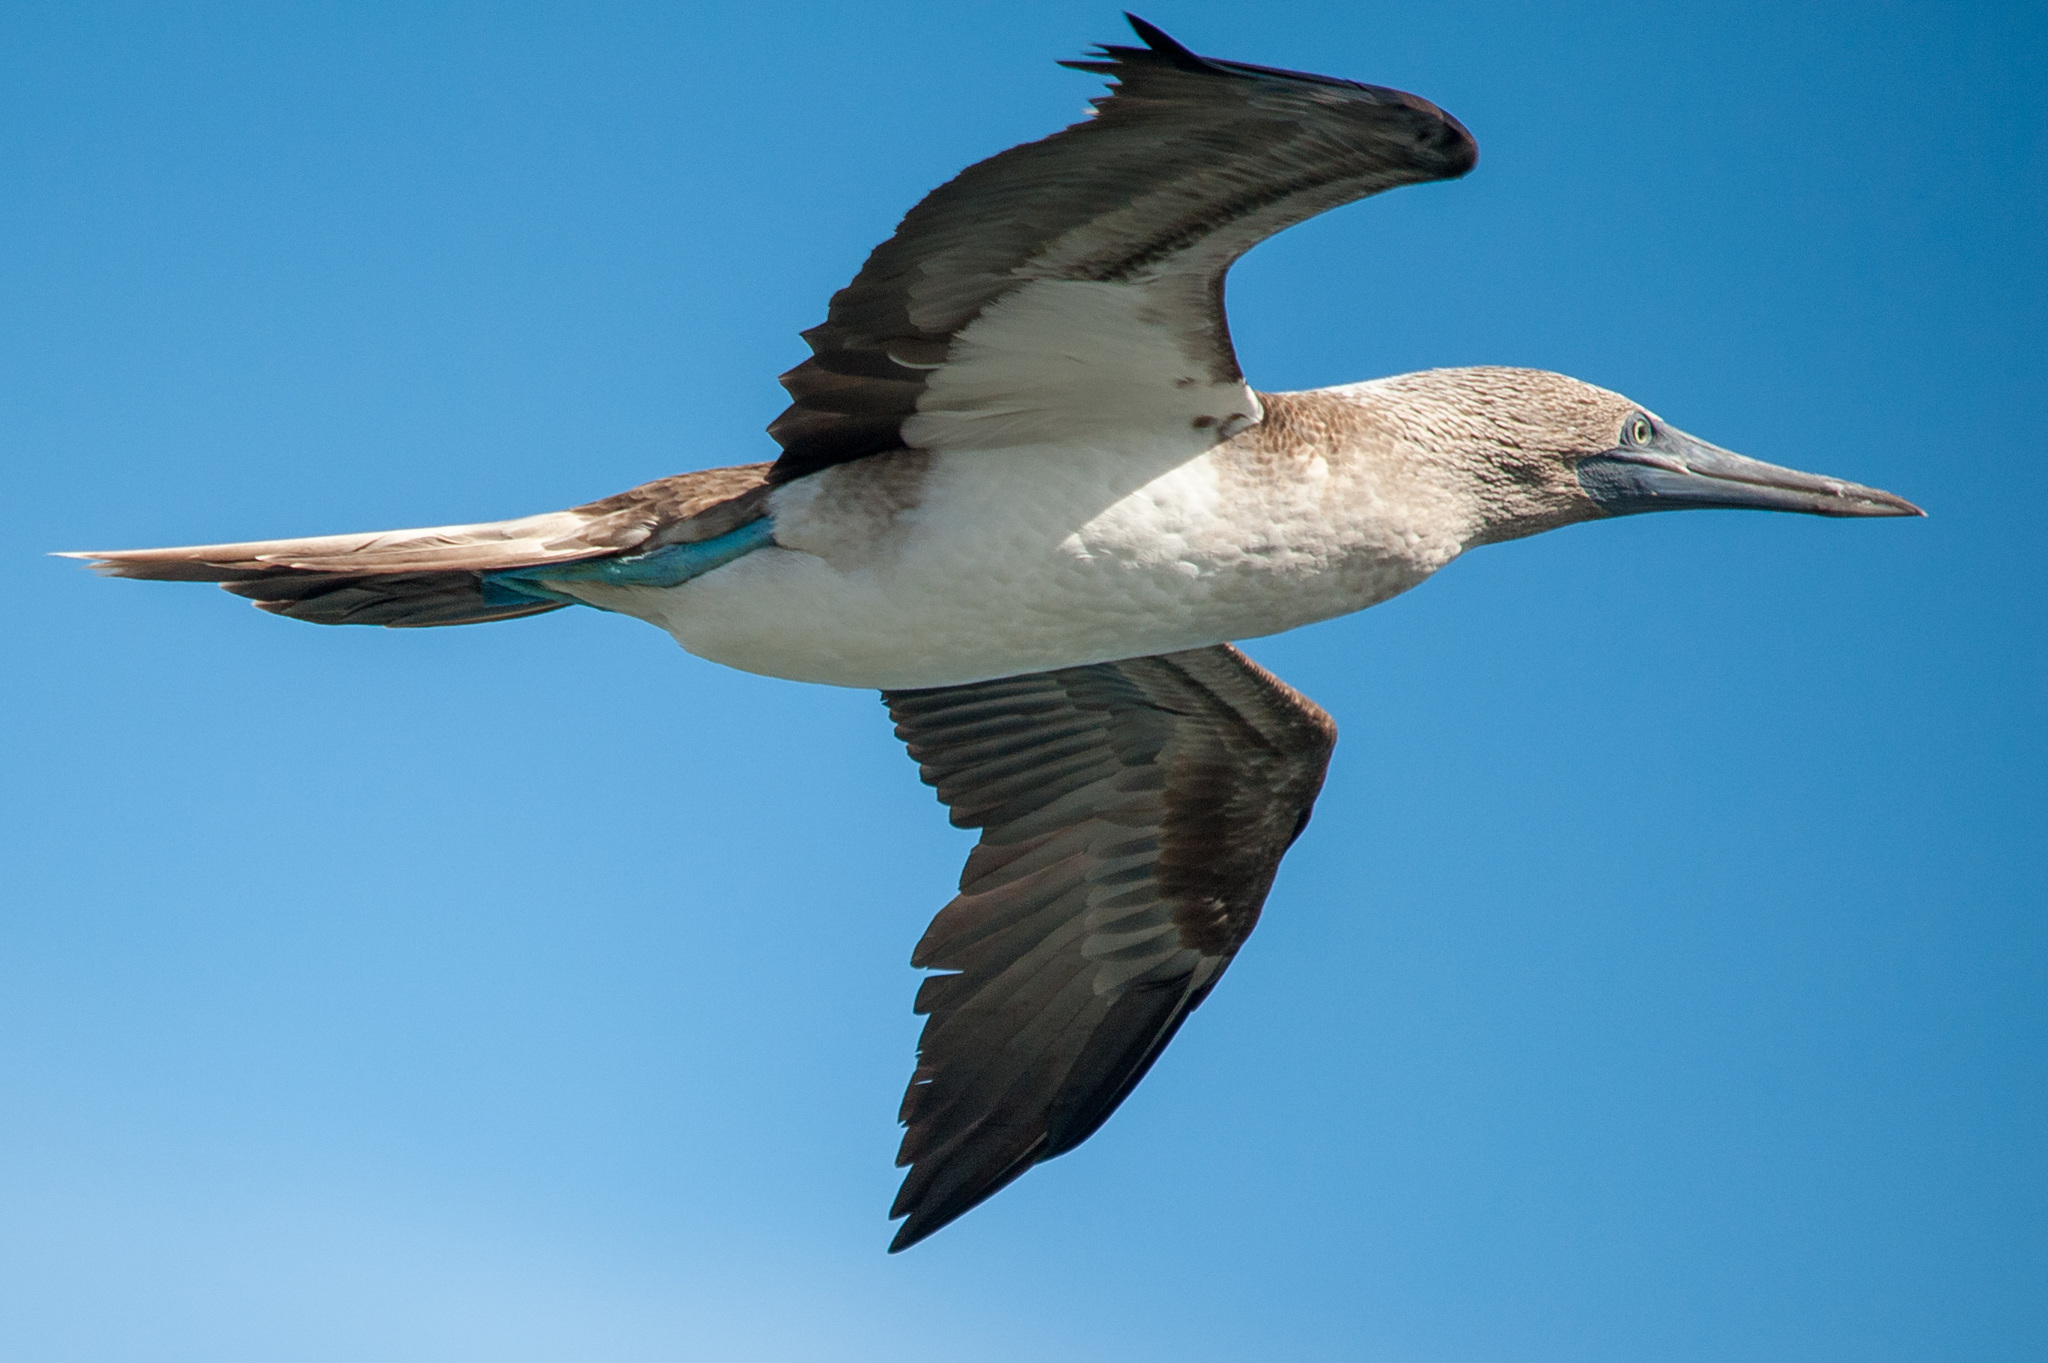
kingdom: Animalia
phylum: Chordata
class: Aves
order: Suliformes
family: Sulidae
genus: Sula
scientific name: Sula nebouxii
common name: Blue-footed booby
